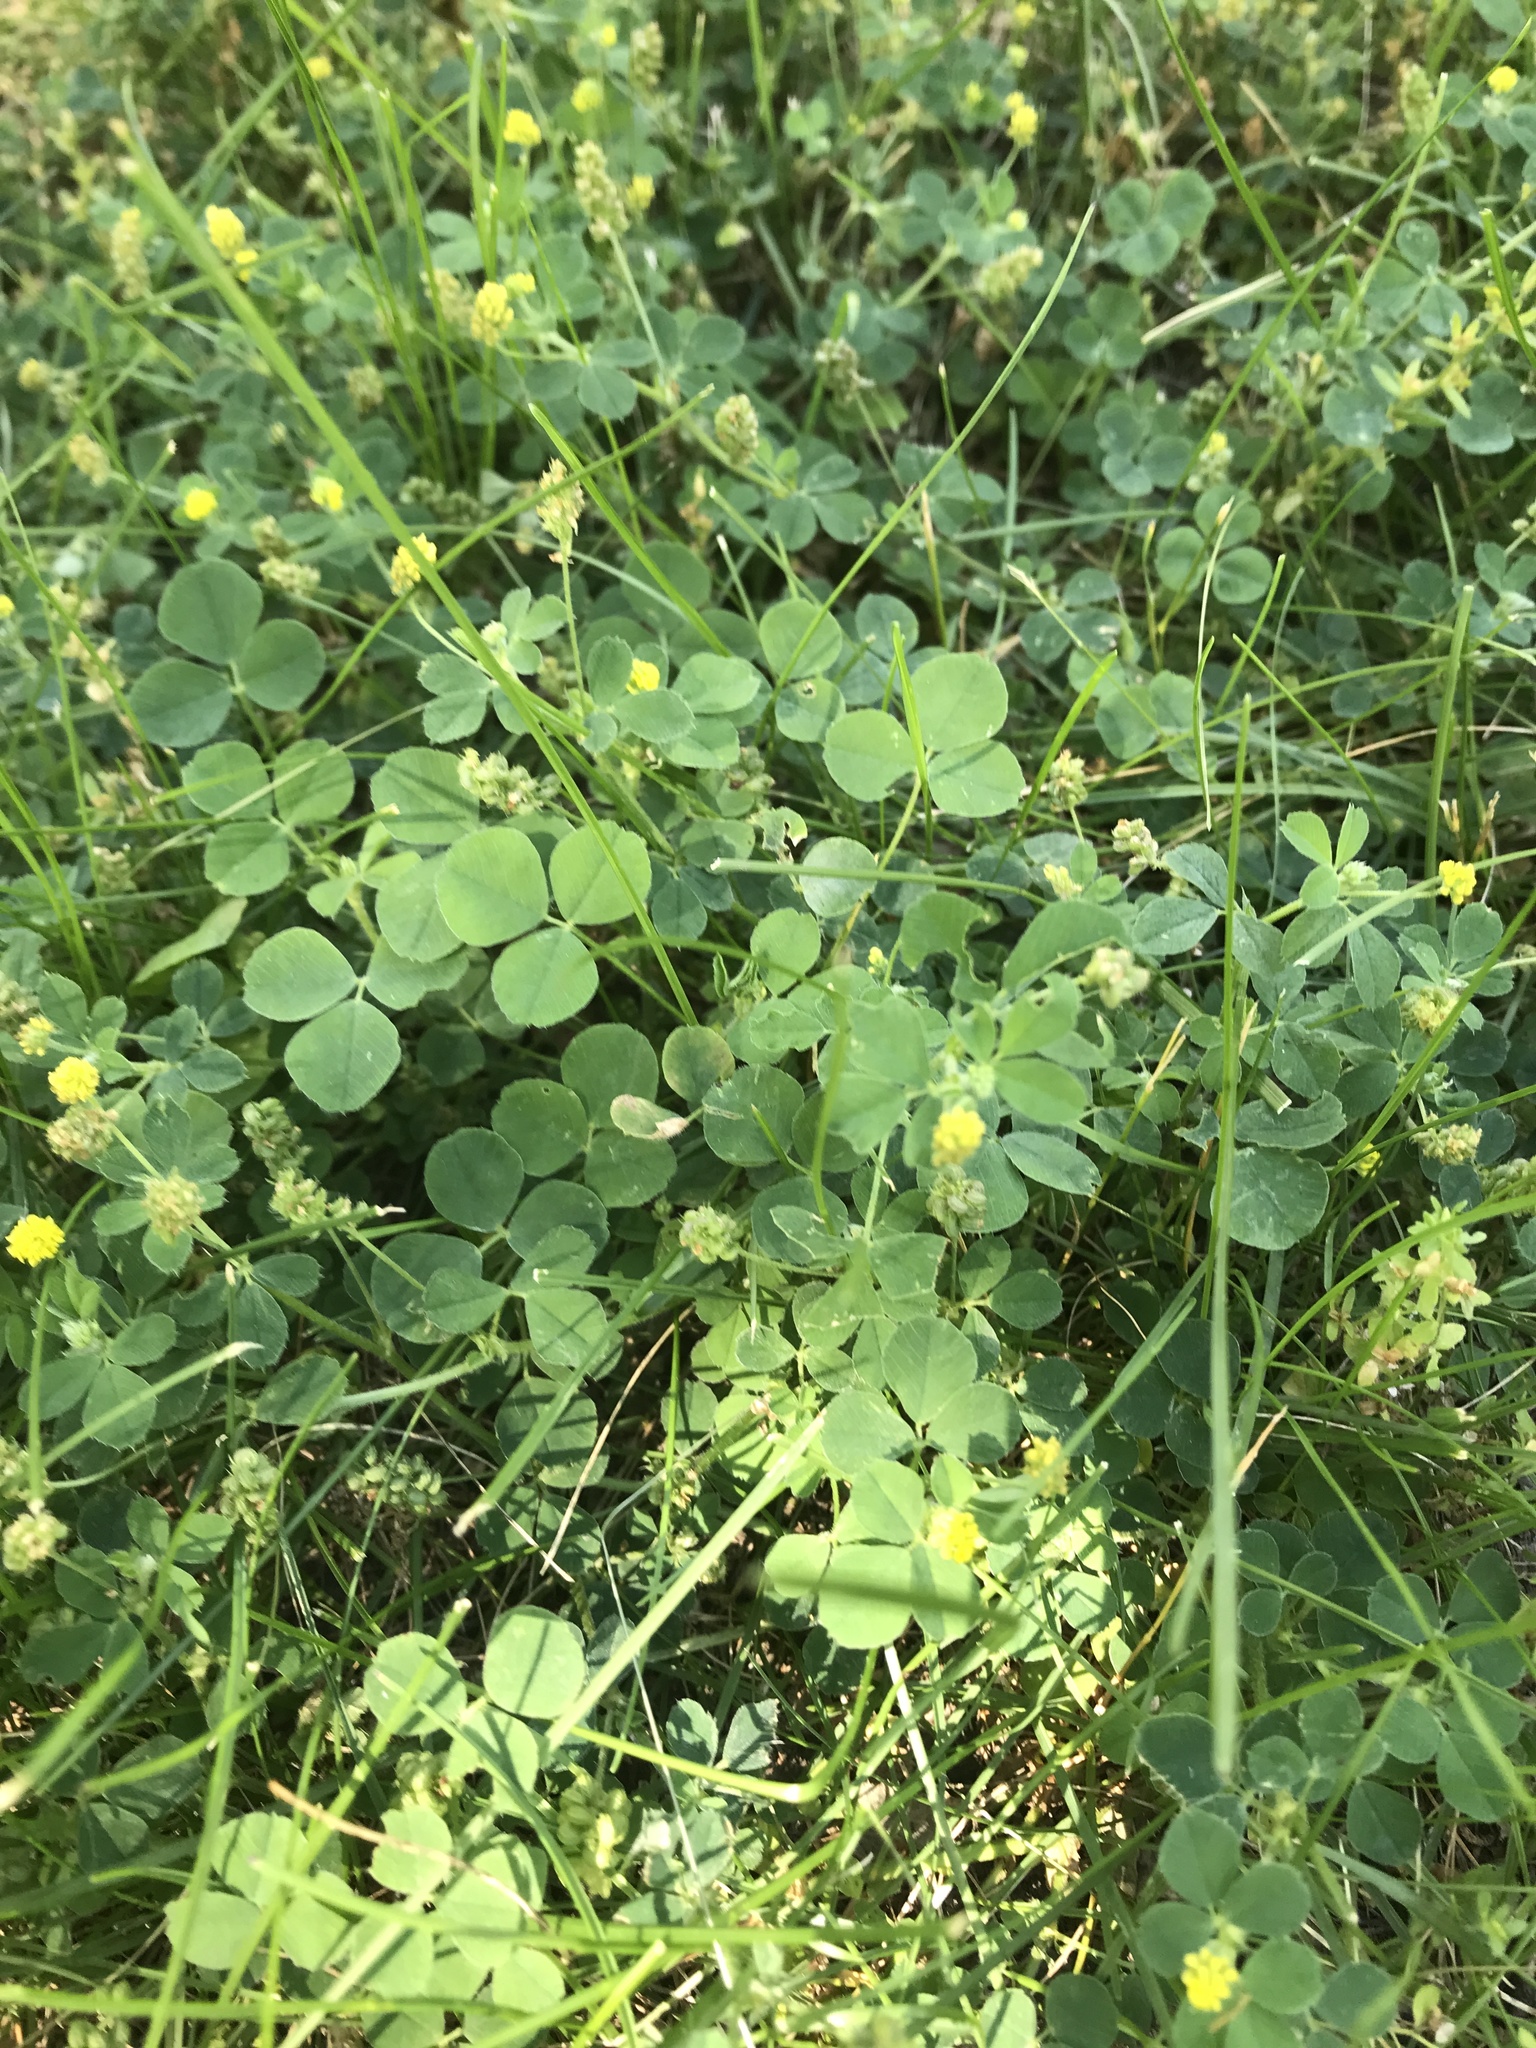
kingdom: Plantae
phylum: Tracheophyta
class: Magnoliopsida
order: Fabales
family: Fabaceae
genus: Medicago
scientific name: Medicago lupulina
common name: Black medick
